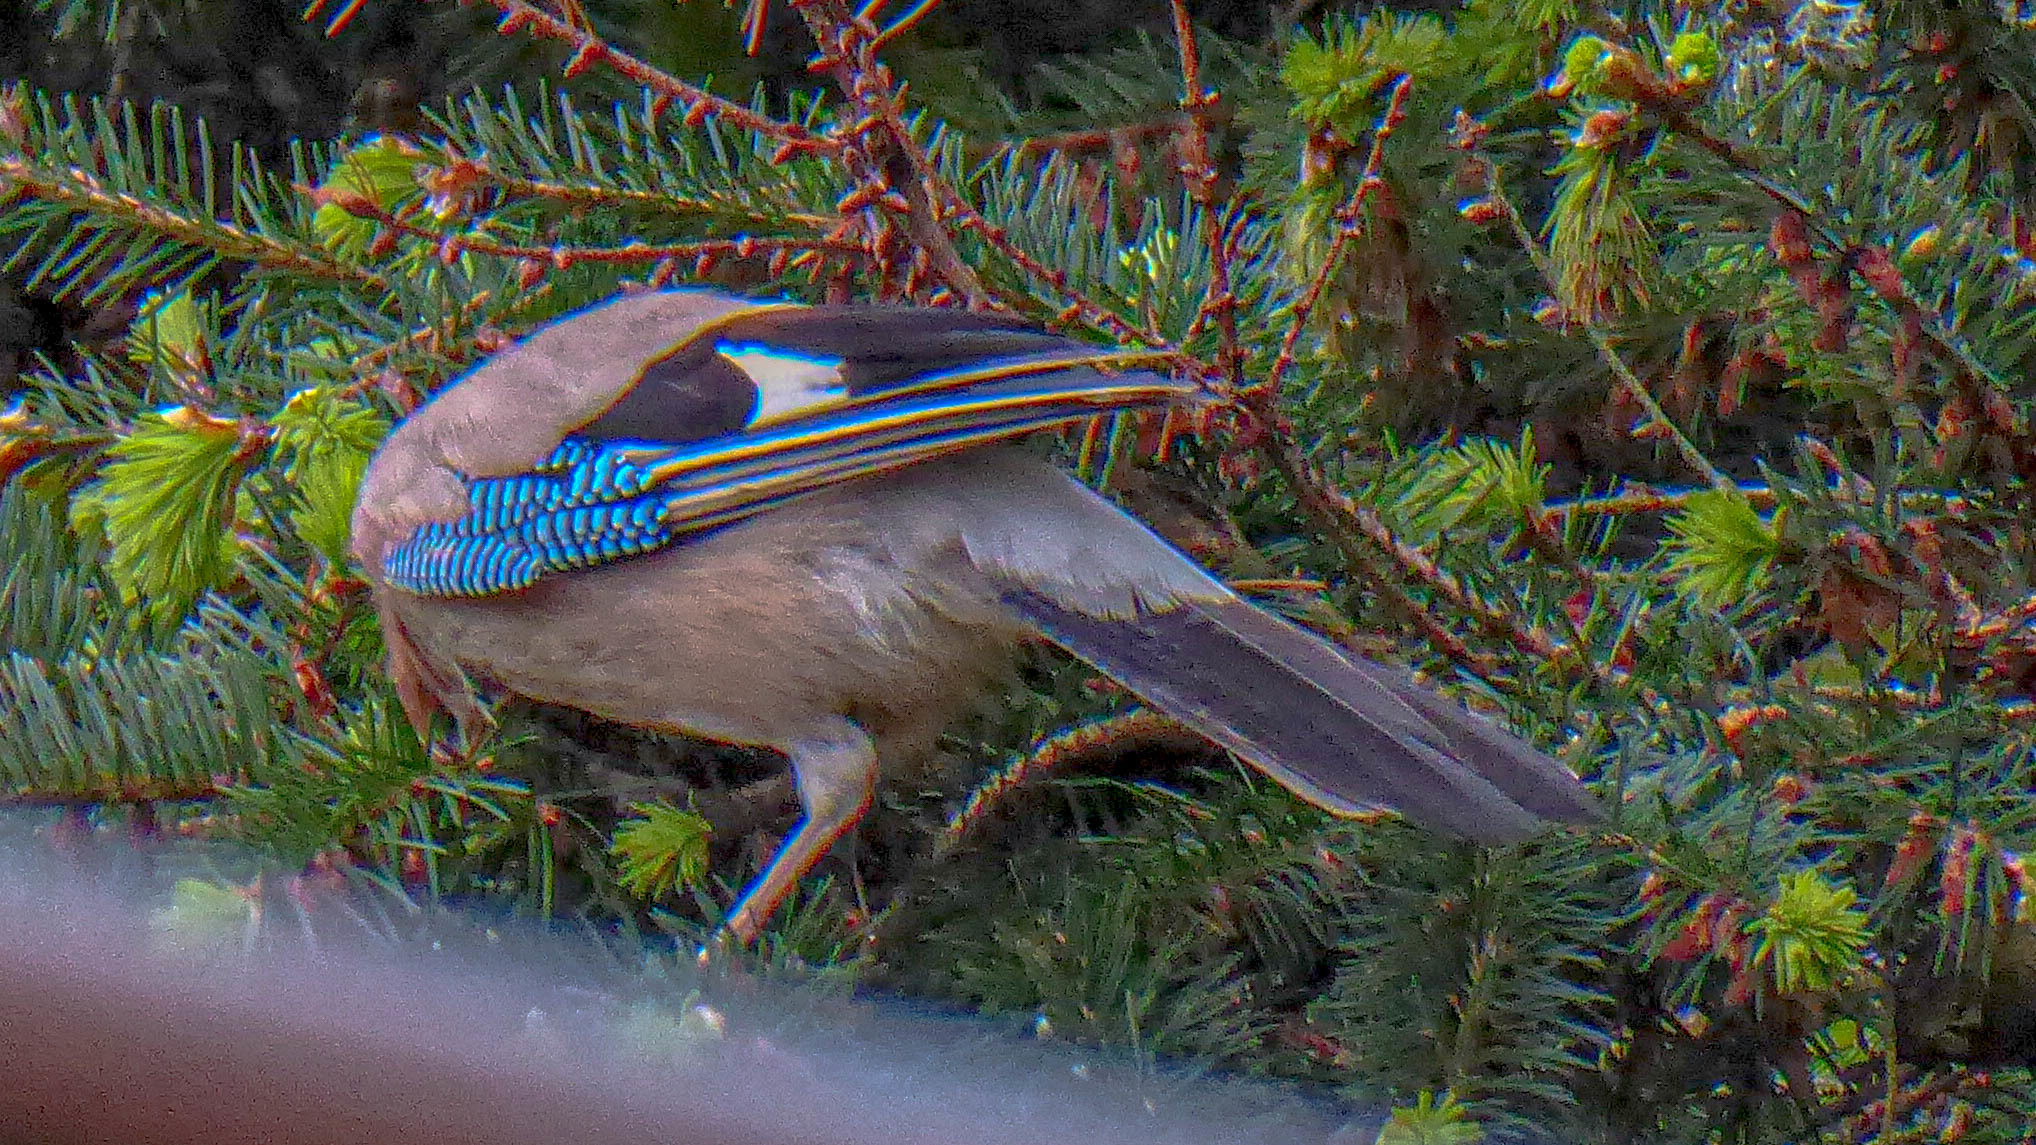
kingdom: Animalia
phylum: Chordata
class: Aves
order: Passeriformes
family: Corvidae
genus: Garrulus
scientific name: Garrulus glandarius
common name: Eurasian jay
